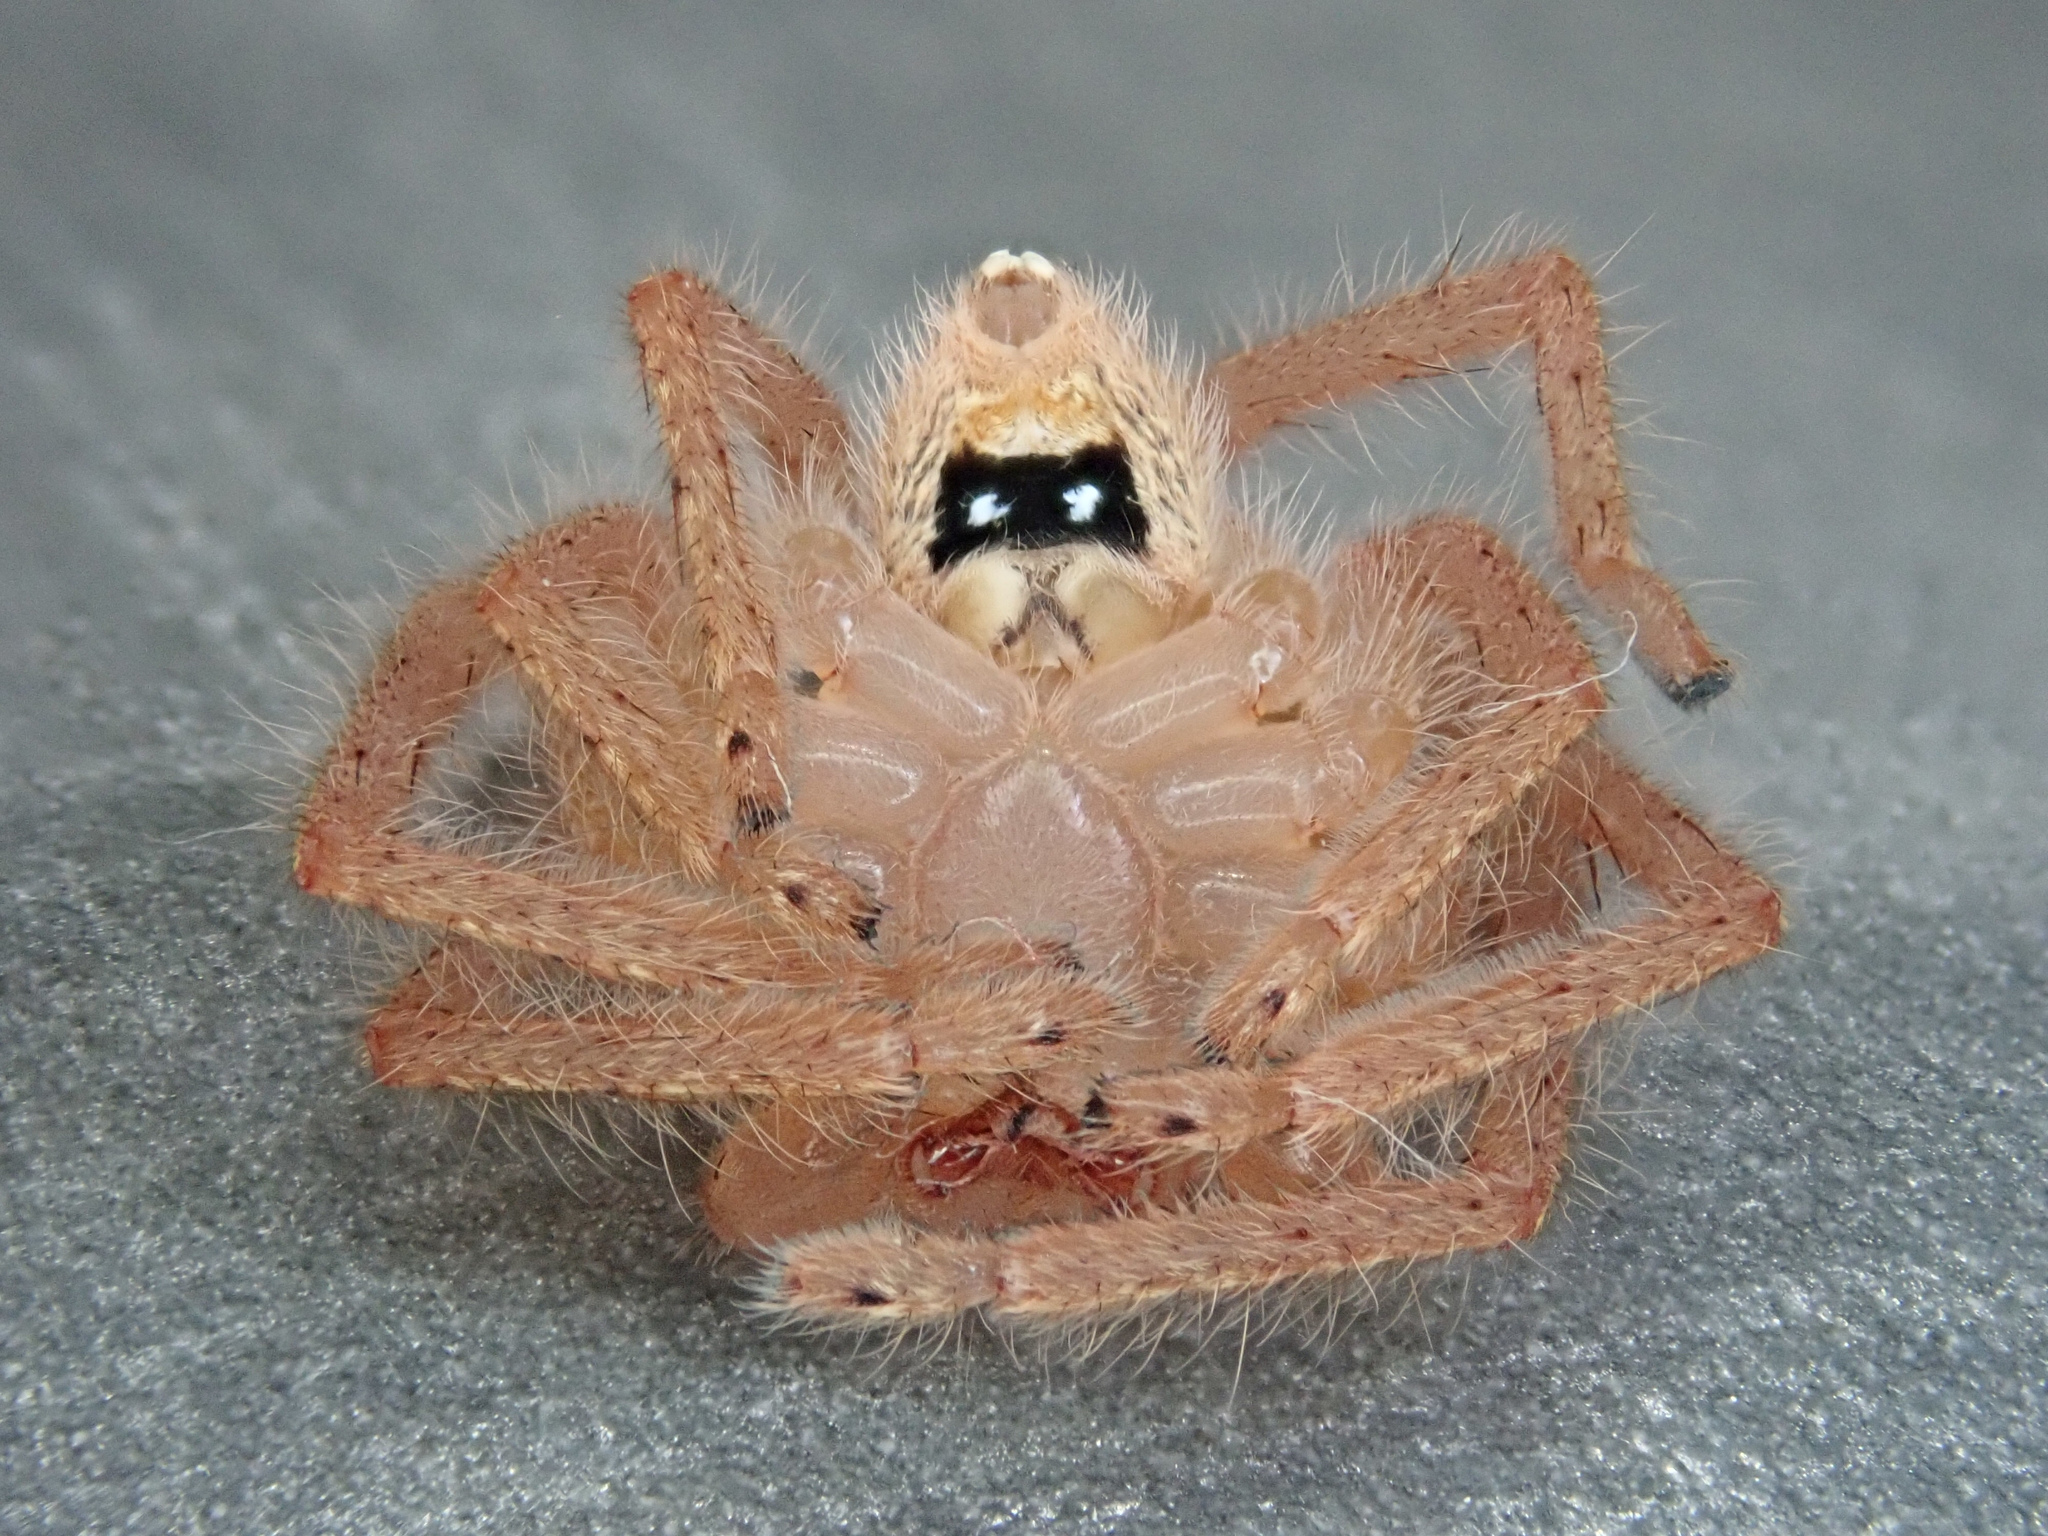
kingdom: Animalia
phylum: Arthropoda
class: Arachnida
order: Araneae
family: Sparassidae
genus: Neosparassus
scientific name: Neosparassus diana
